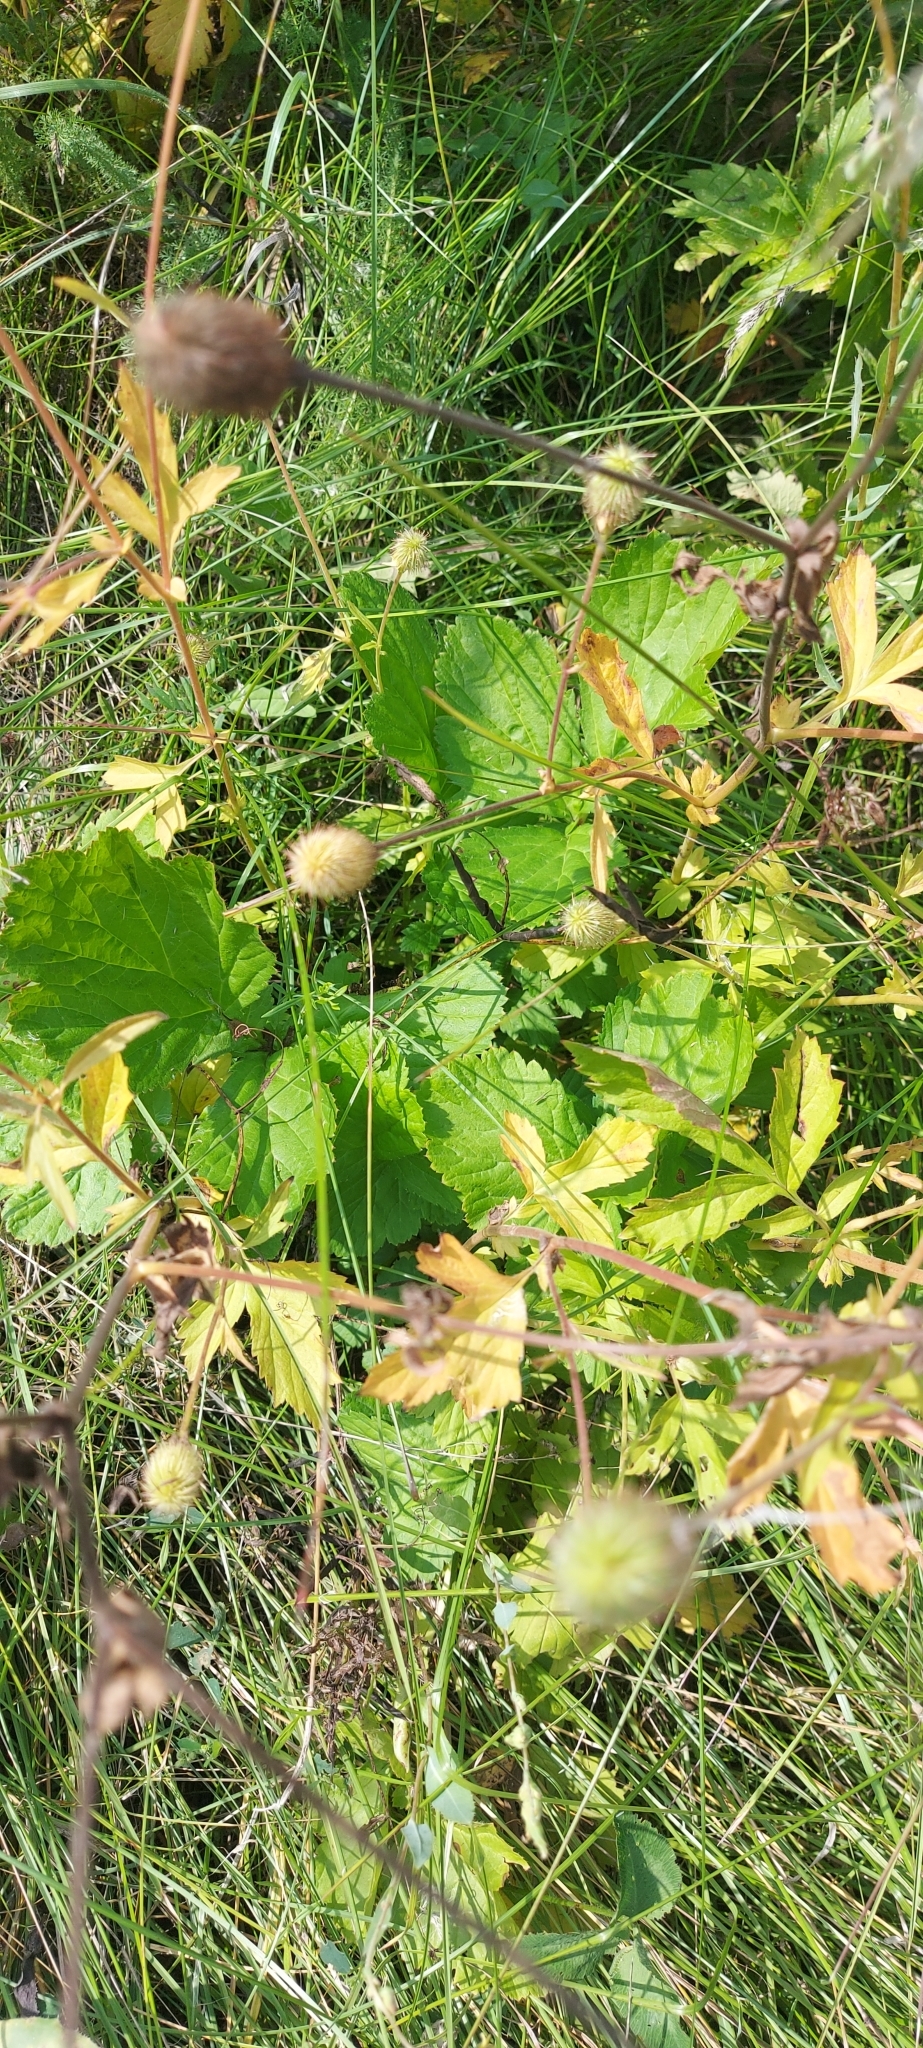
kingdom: Plantae
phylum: Tracheophyta
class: Magnoliopsida
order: Rosales
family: Rosaceae
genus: Geum
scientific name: Geum aleppicum
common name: Yellow avens
